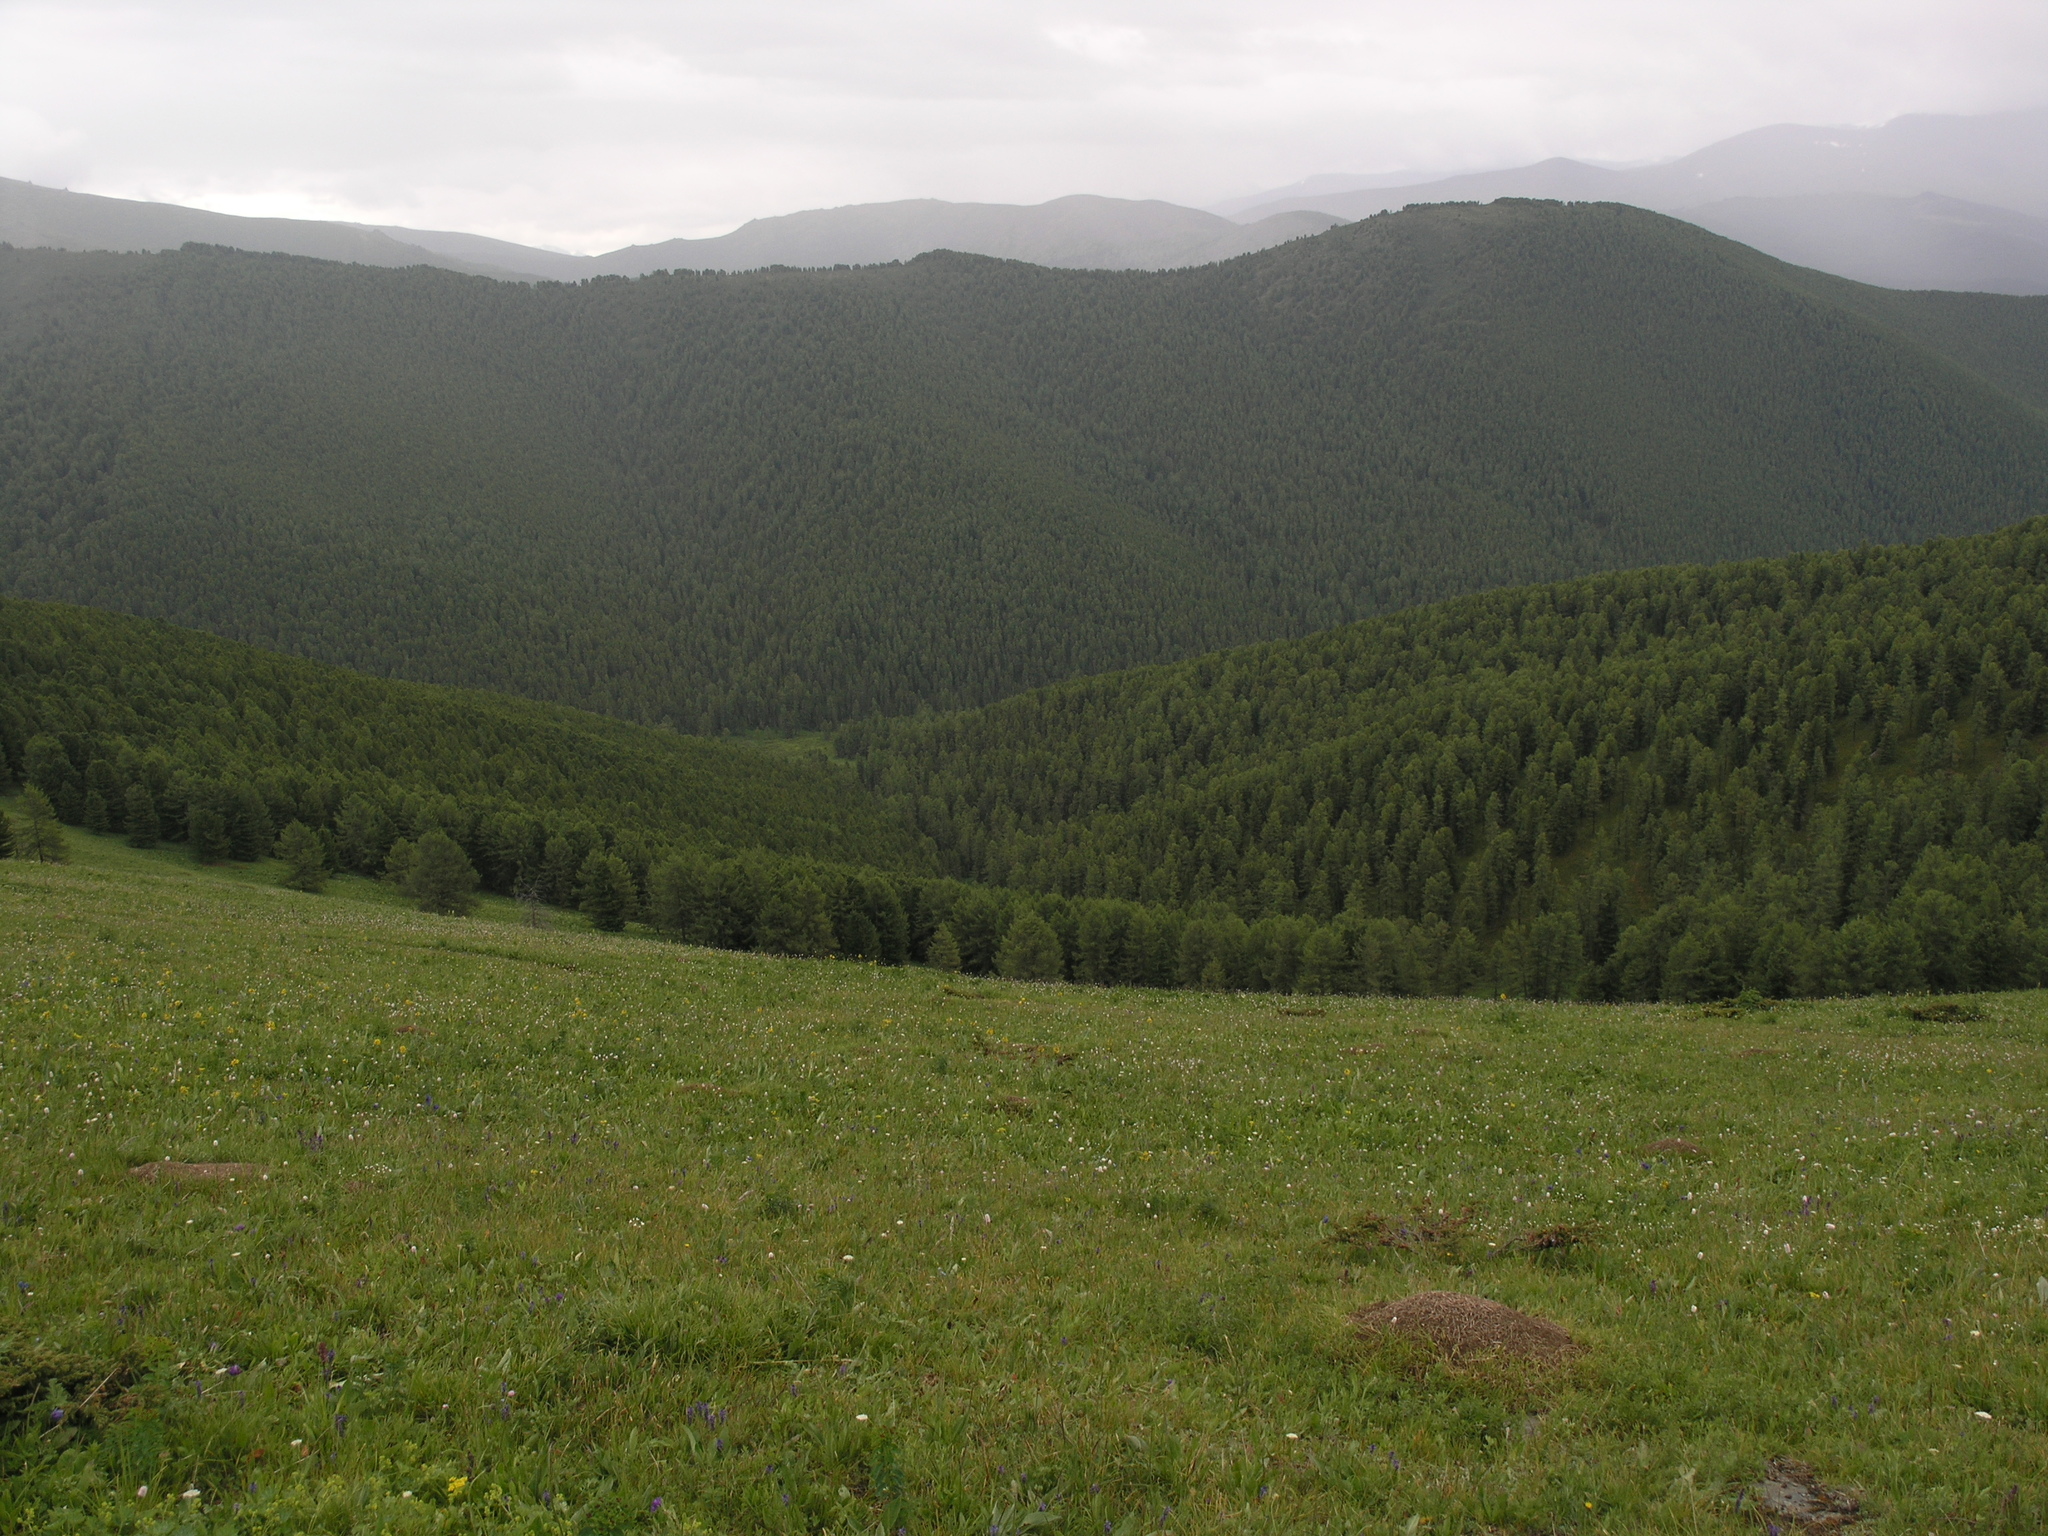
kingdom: Plantae
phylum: Tracheophyta
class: Pinopsida
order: Pinales
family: Pinaceae
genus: Pinus
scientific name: Pinus sibirica
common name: Siberian pine
